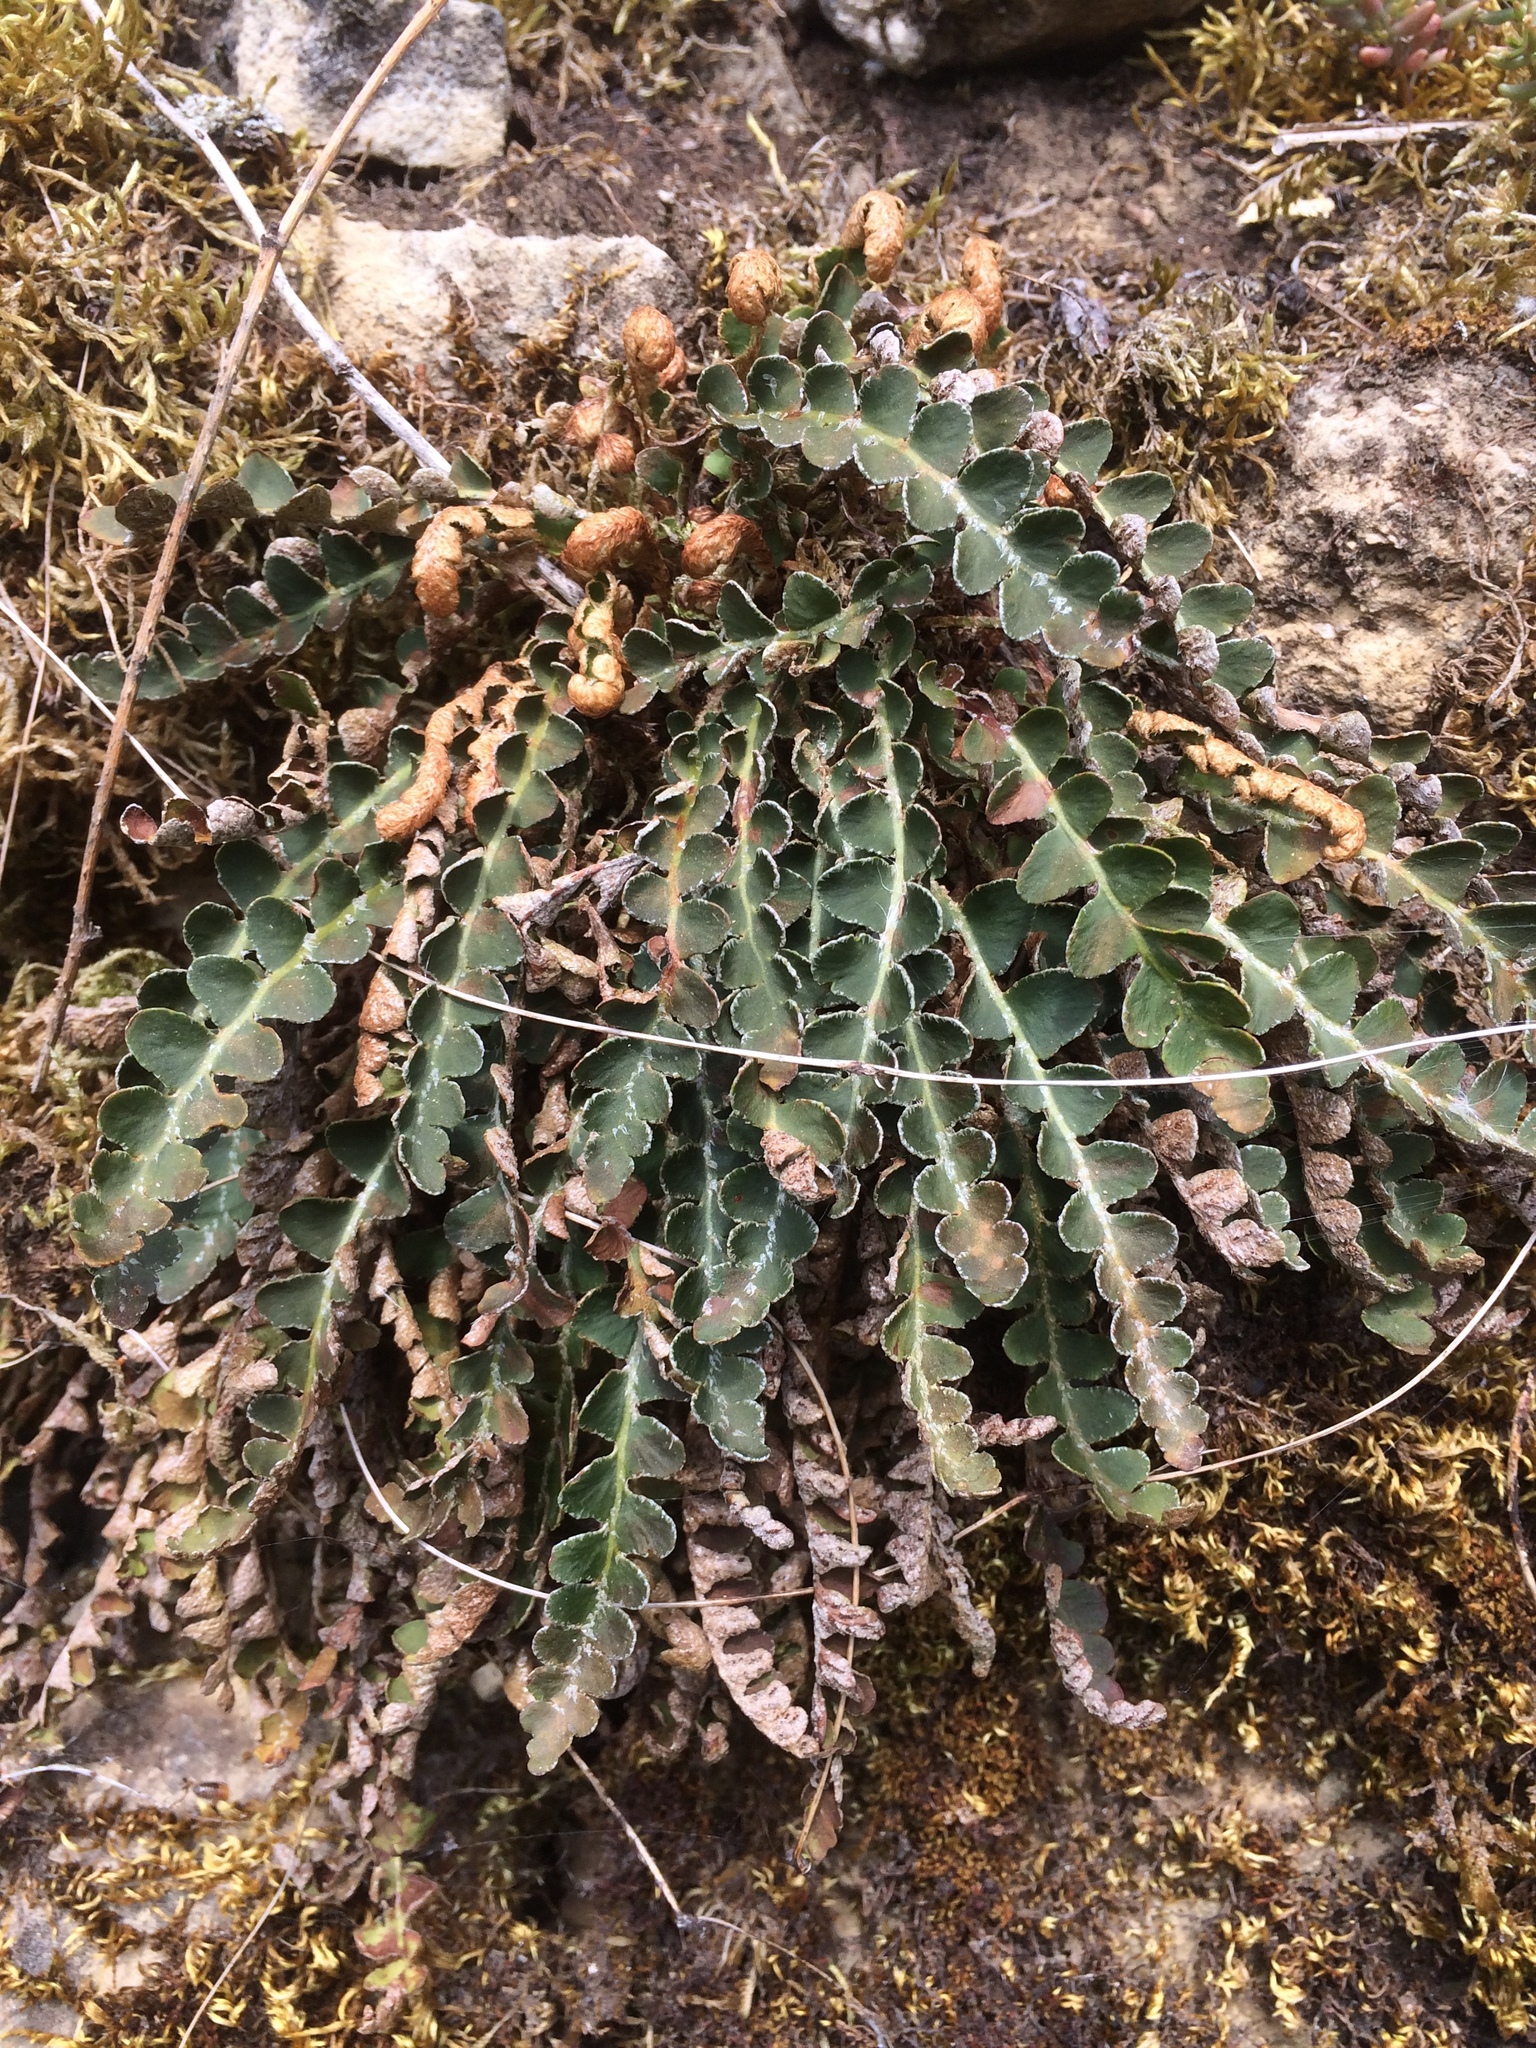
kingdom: Plantae
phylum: Tracheophyta
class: Polypodiopsida
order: Polypodiales
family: Aspleniaceae
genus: Asplenium
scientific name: Asplenium ceterach
